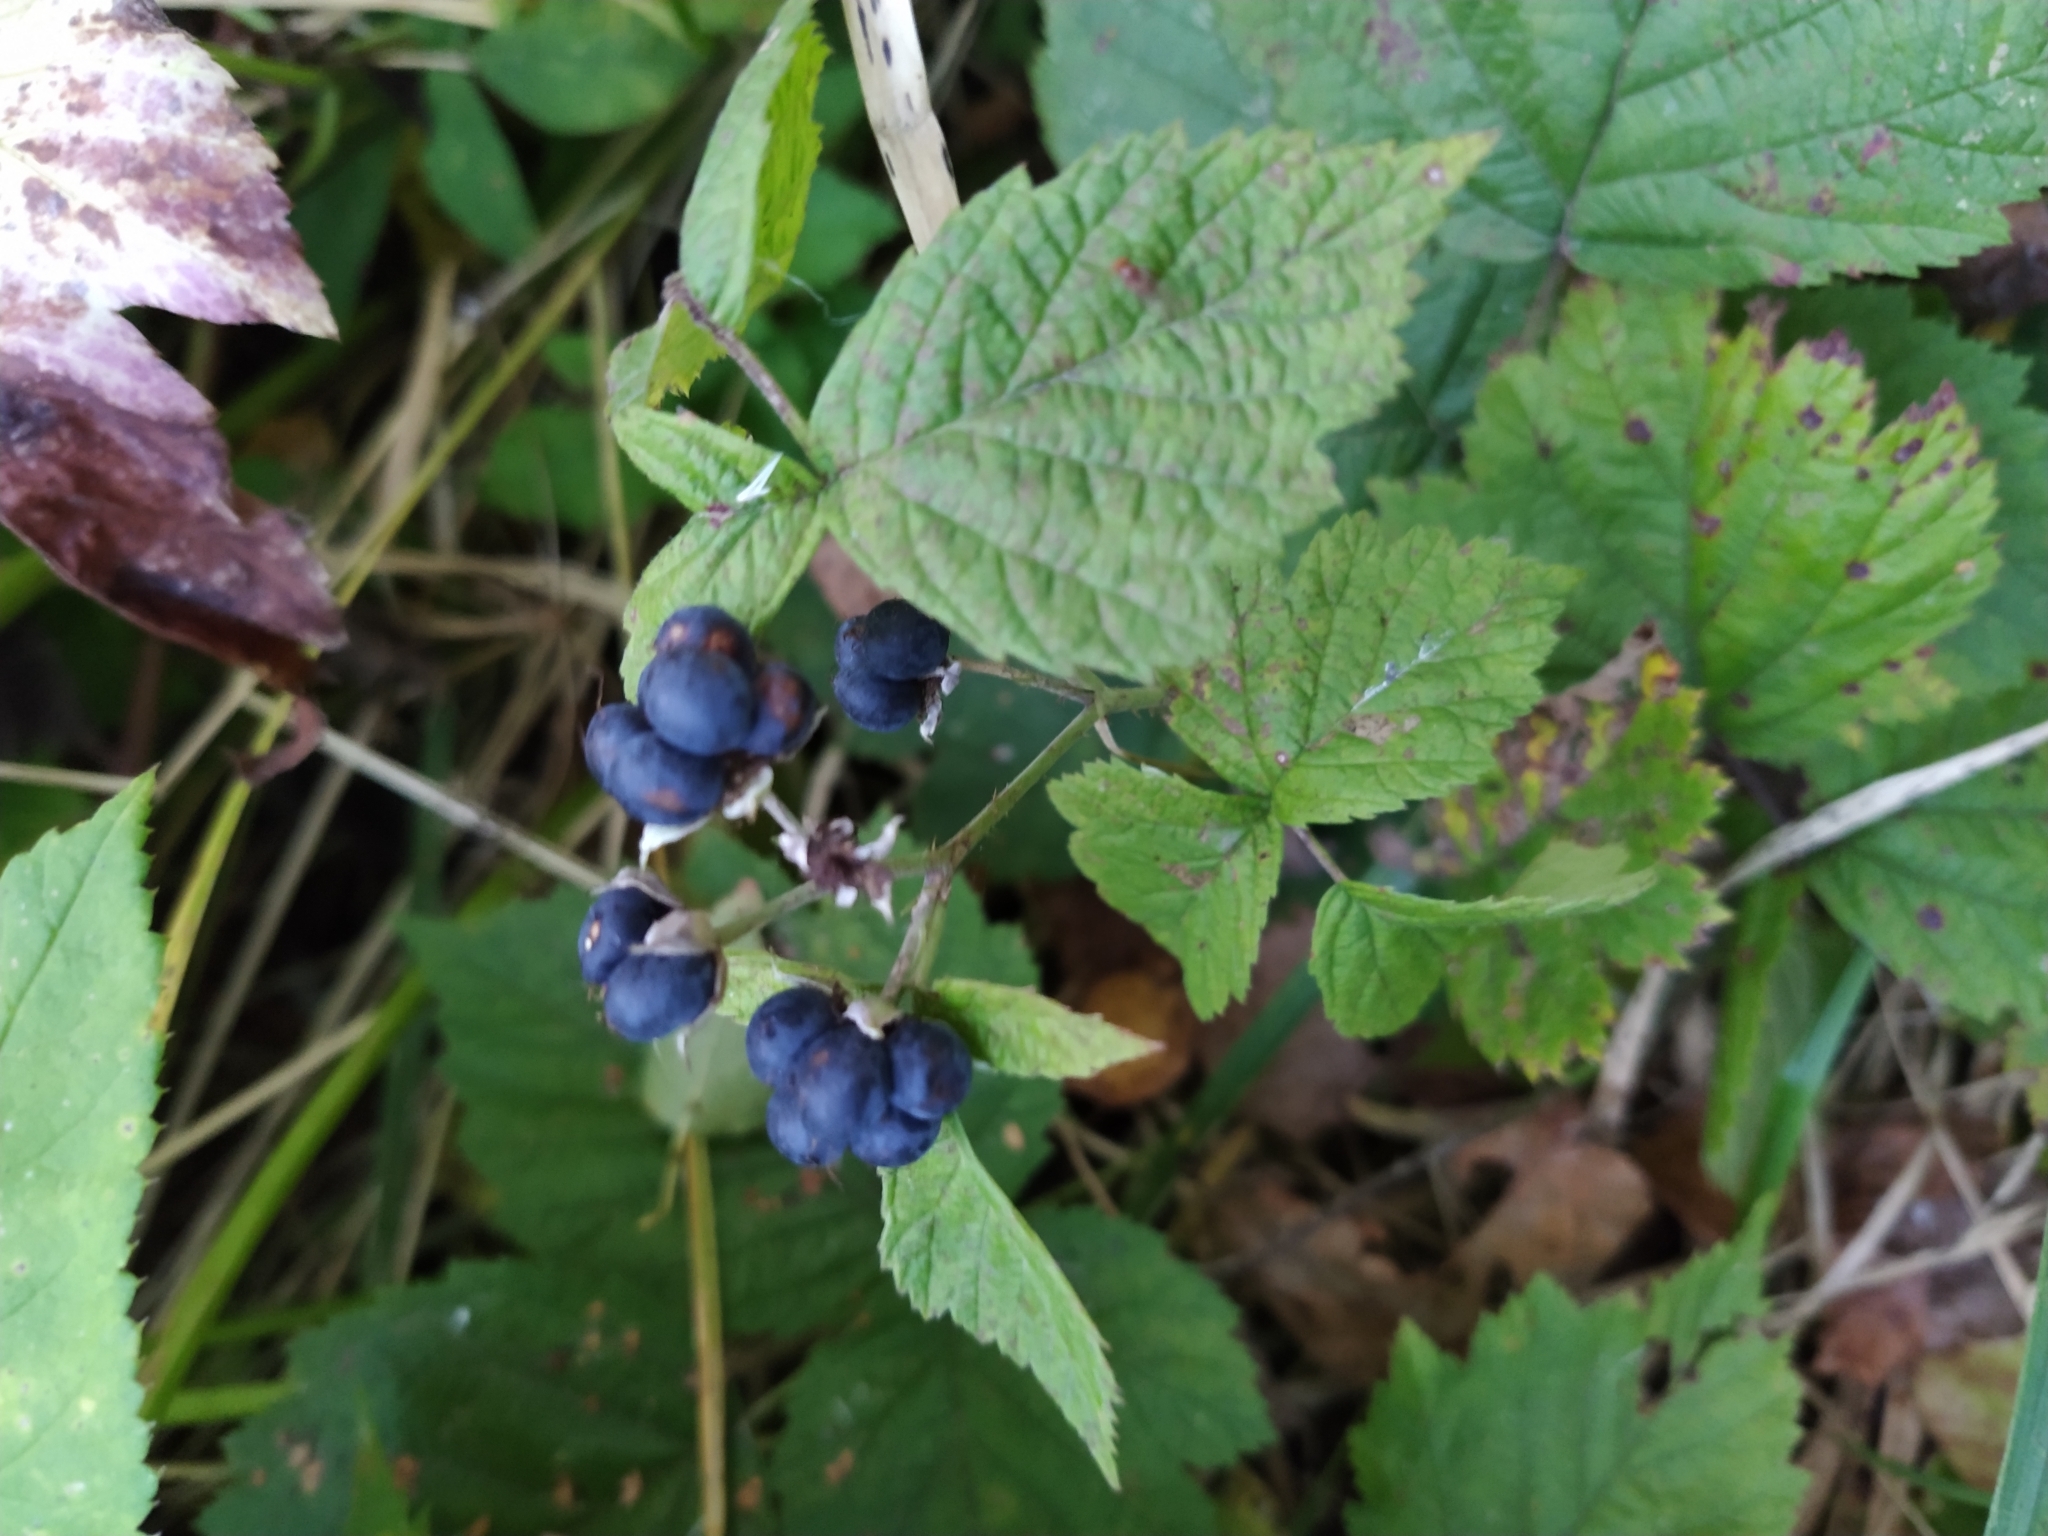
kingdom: Plantae
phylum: Tracheophyta
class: Magnoliopsida
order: Rosales
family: Rosaceae
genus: Rubus
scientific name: Rubus caesius
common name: Dewberry
